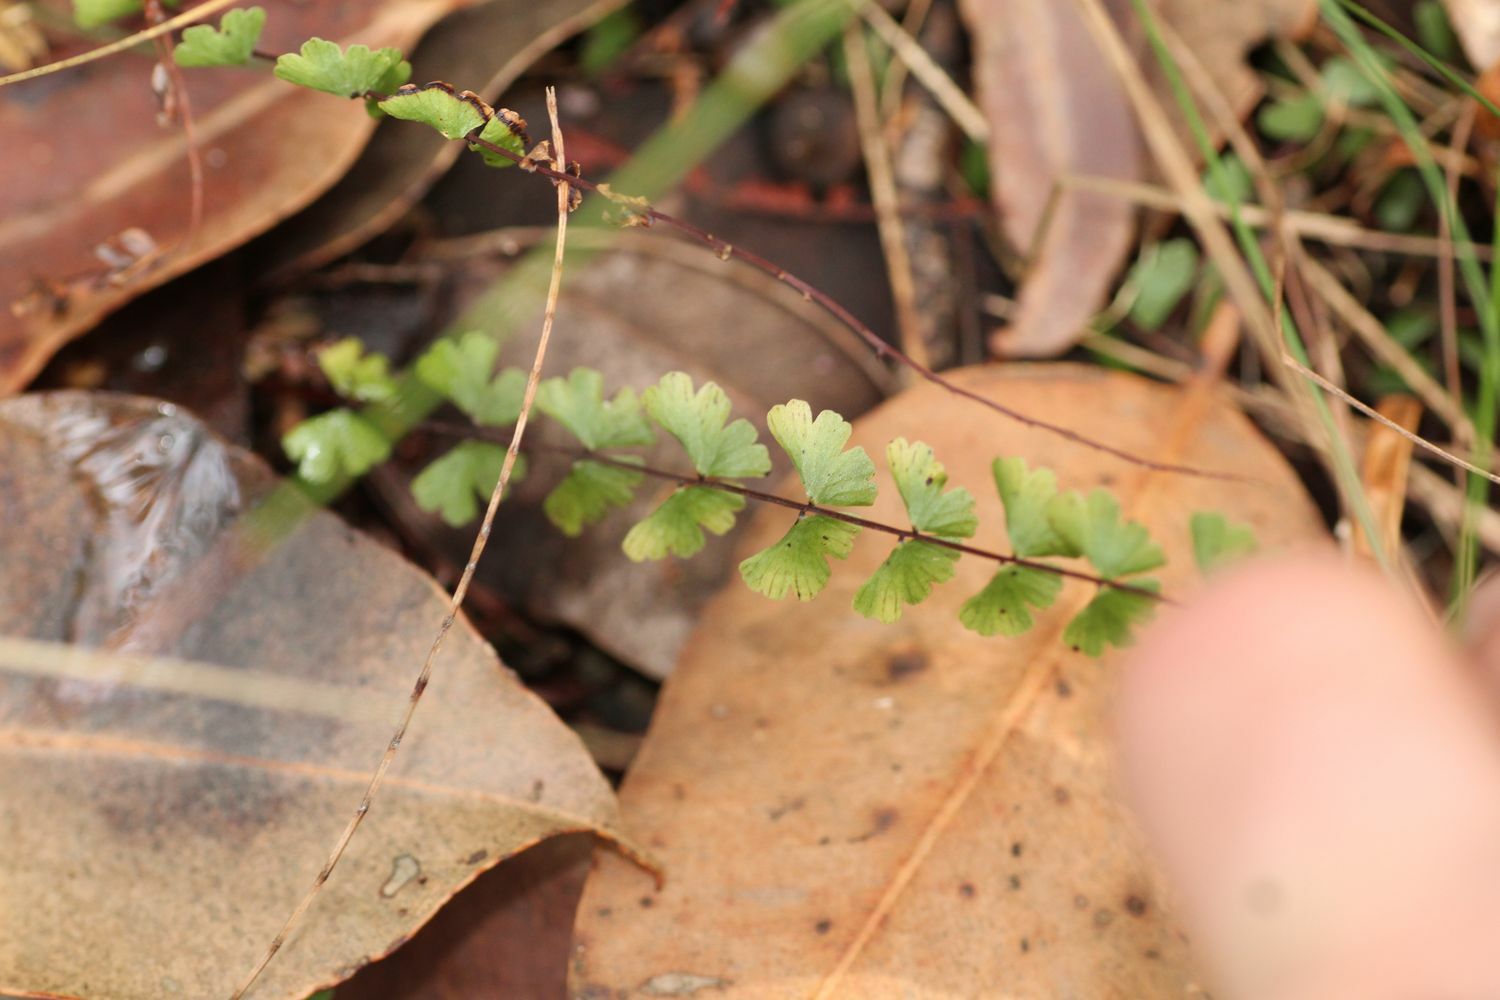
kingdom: Plantae
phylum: Tracheophyta
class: Polypodiopsida
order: Polypodiales
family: Lindsaeaceae
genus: Lindsaea
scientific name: Lindsaea linearis
